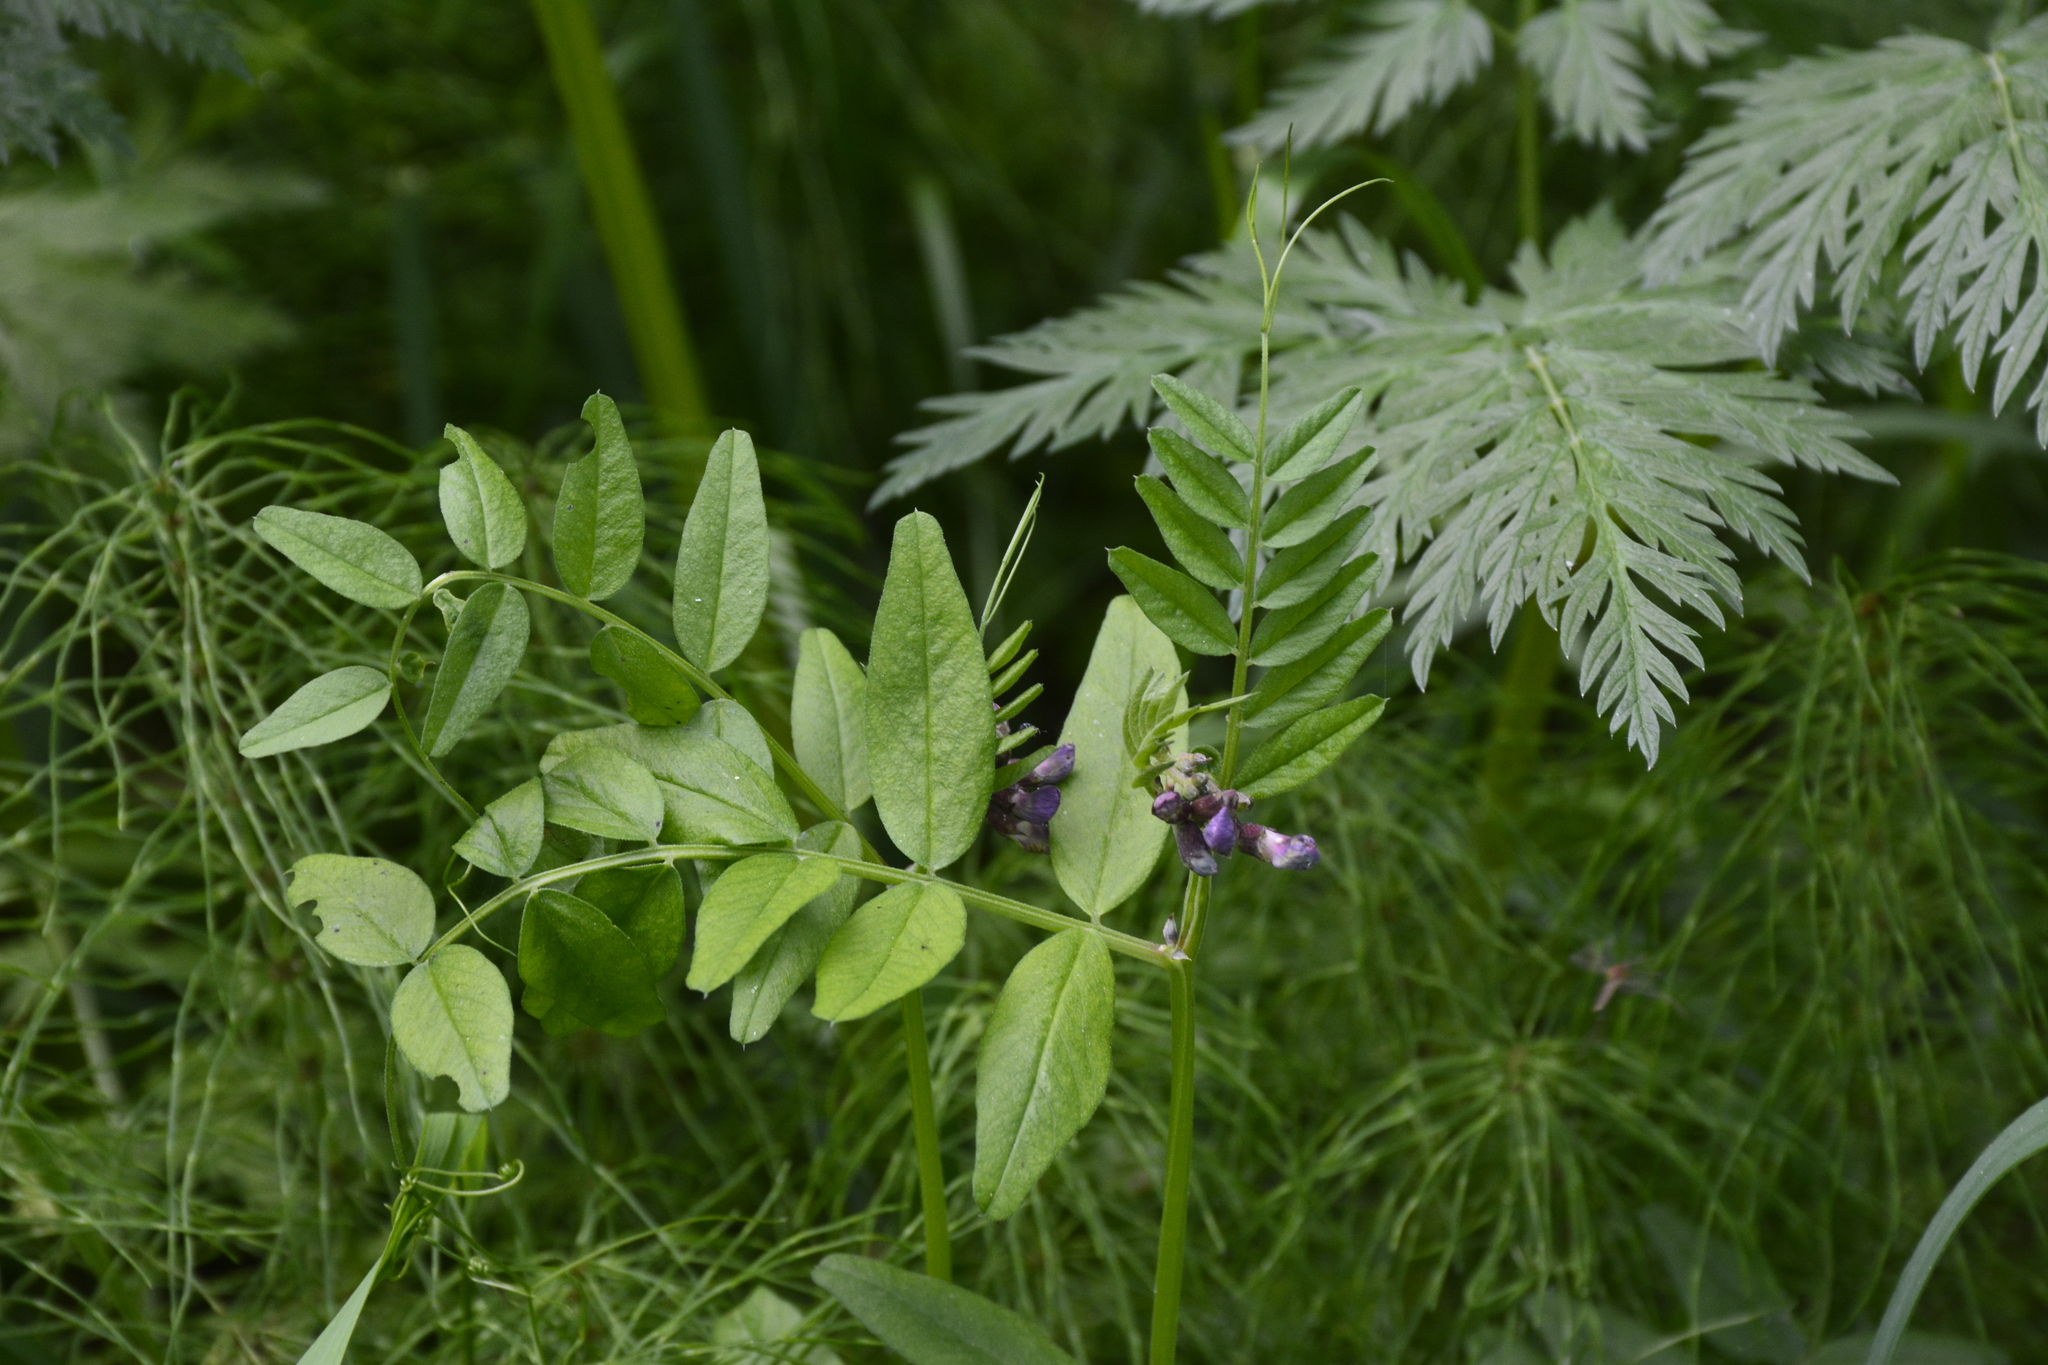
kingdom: Plantae
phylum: Tracheophyta
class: Magnoliopsida
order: Fabales
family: Fabaceae
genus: Vicia
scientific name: Vicia sepium
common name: Bush vetch
